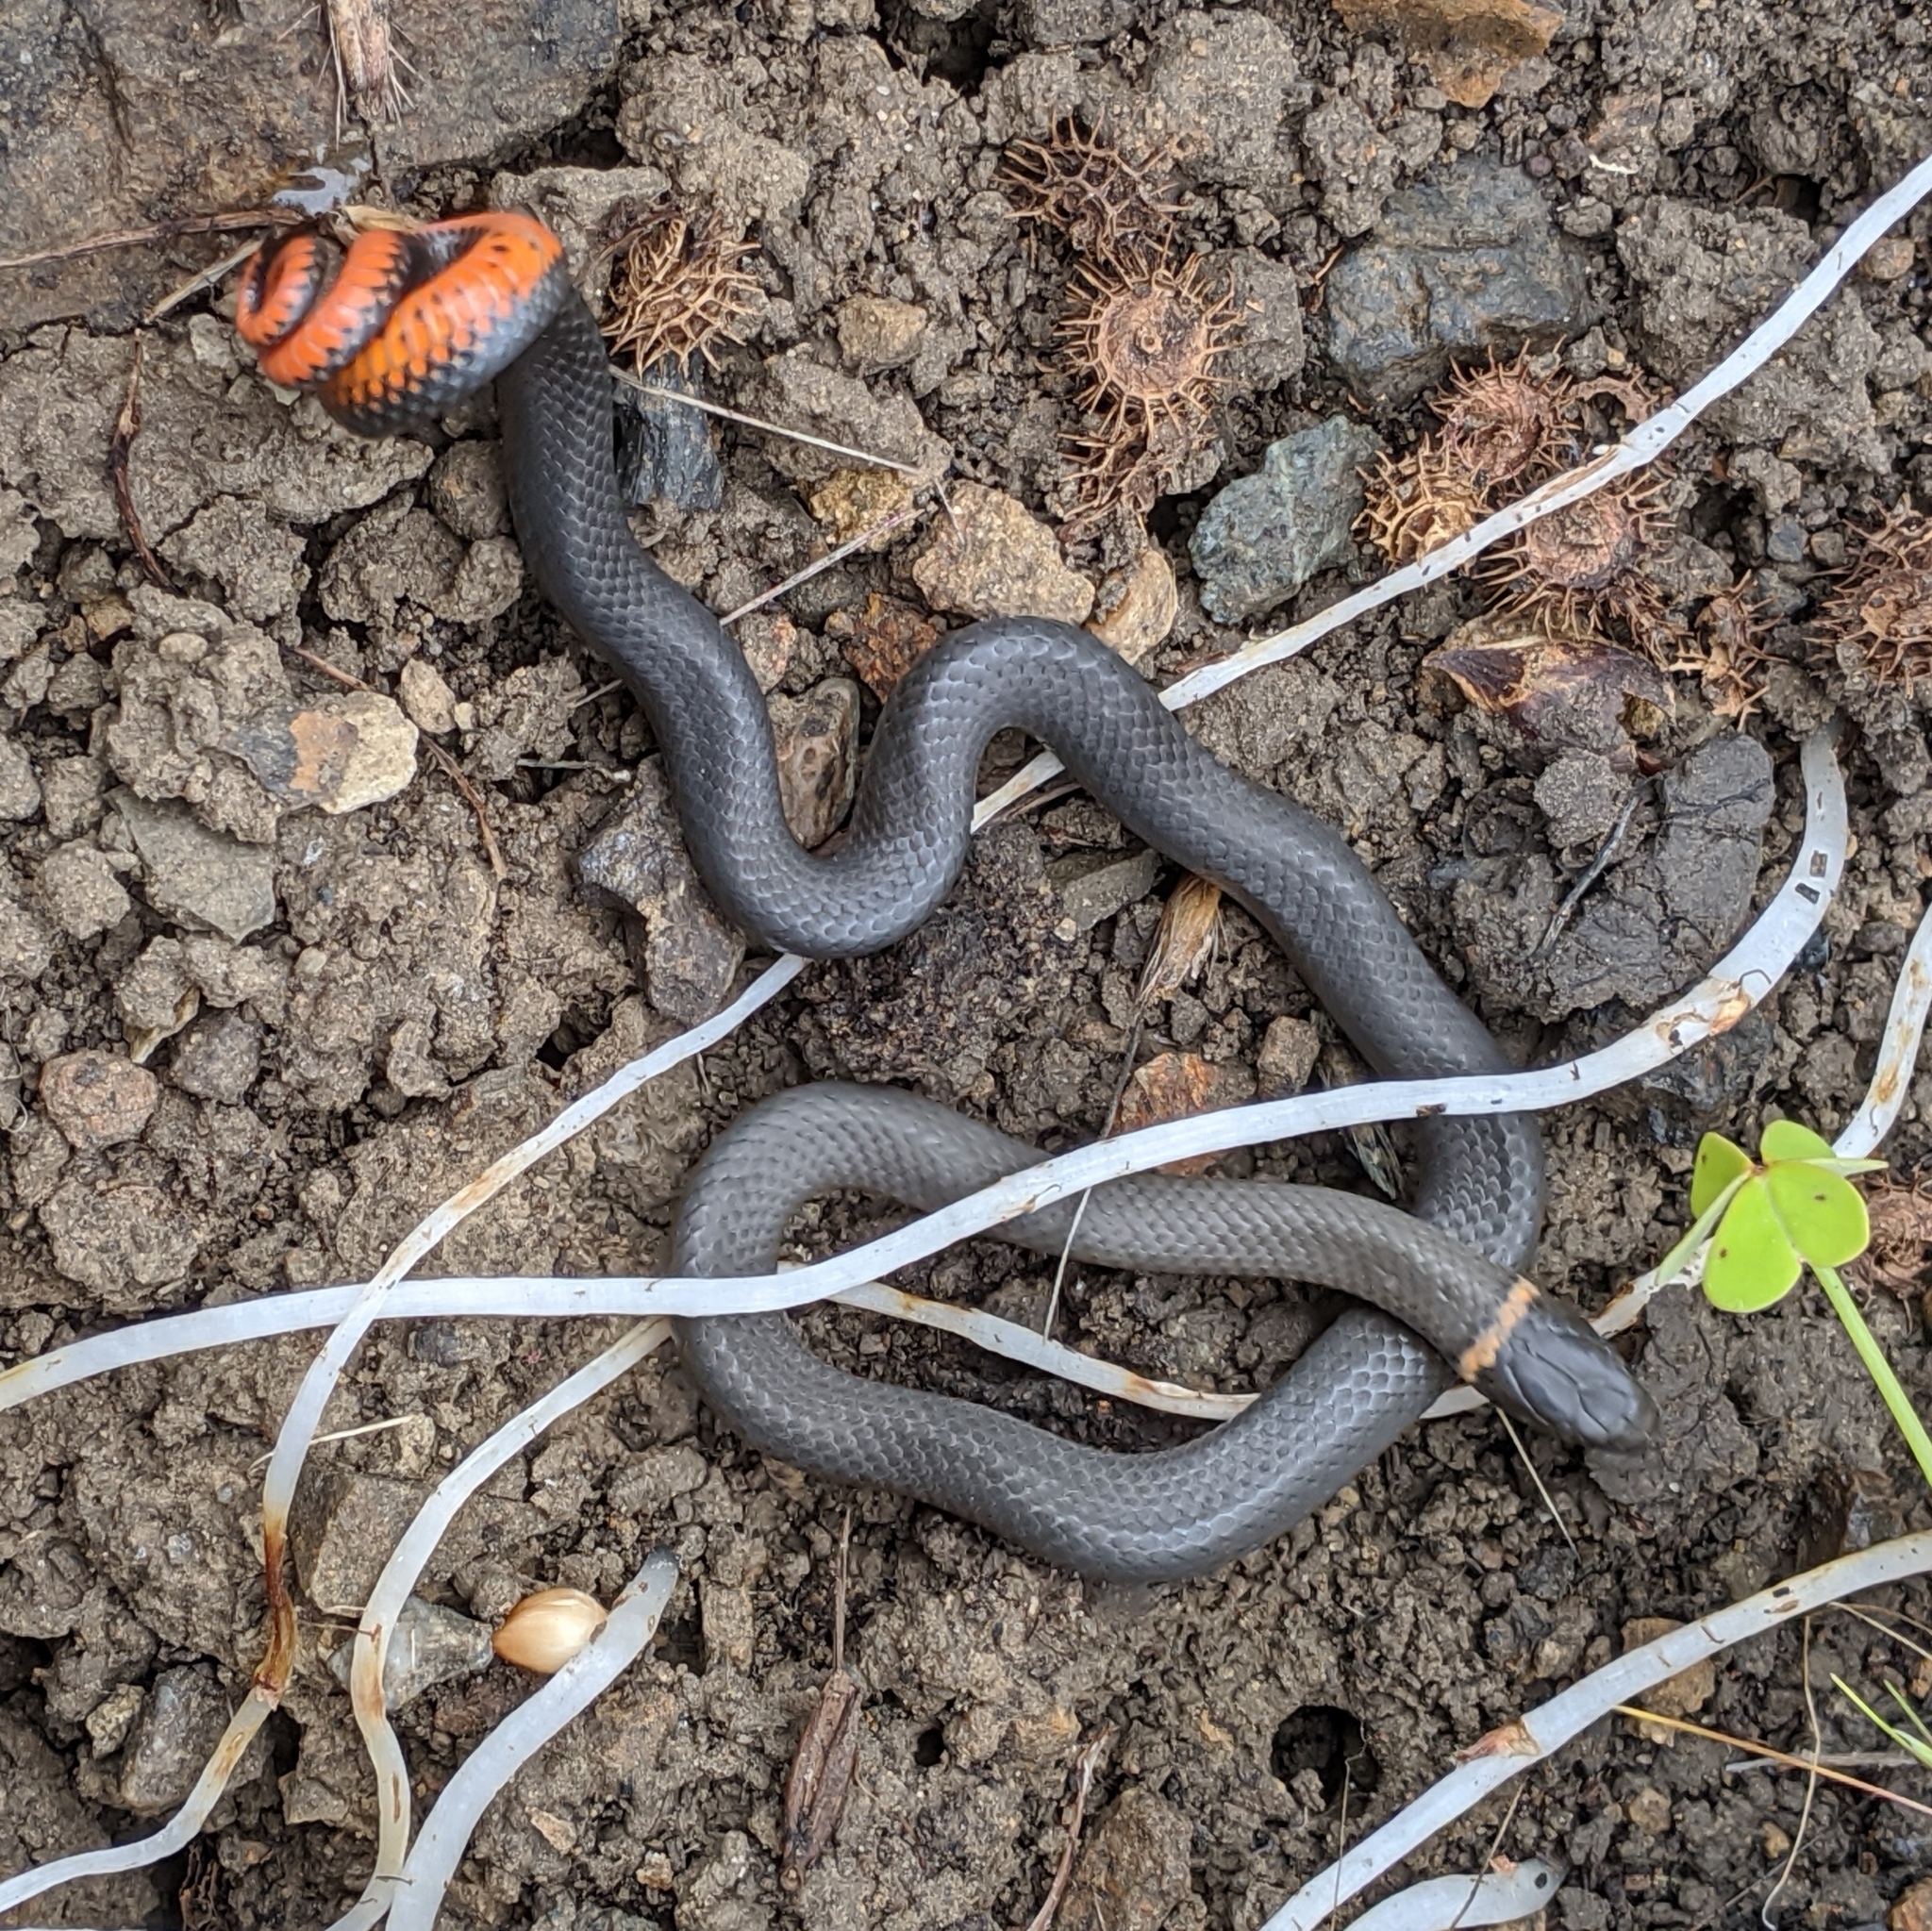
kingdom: Animalia
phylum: Chordata
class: Squamata
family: Colubridae
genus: Diadophis
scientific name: Diadophis punctatus
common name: Ringneck snake
